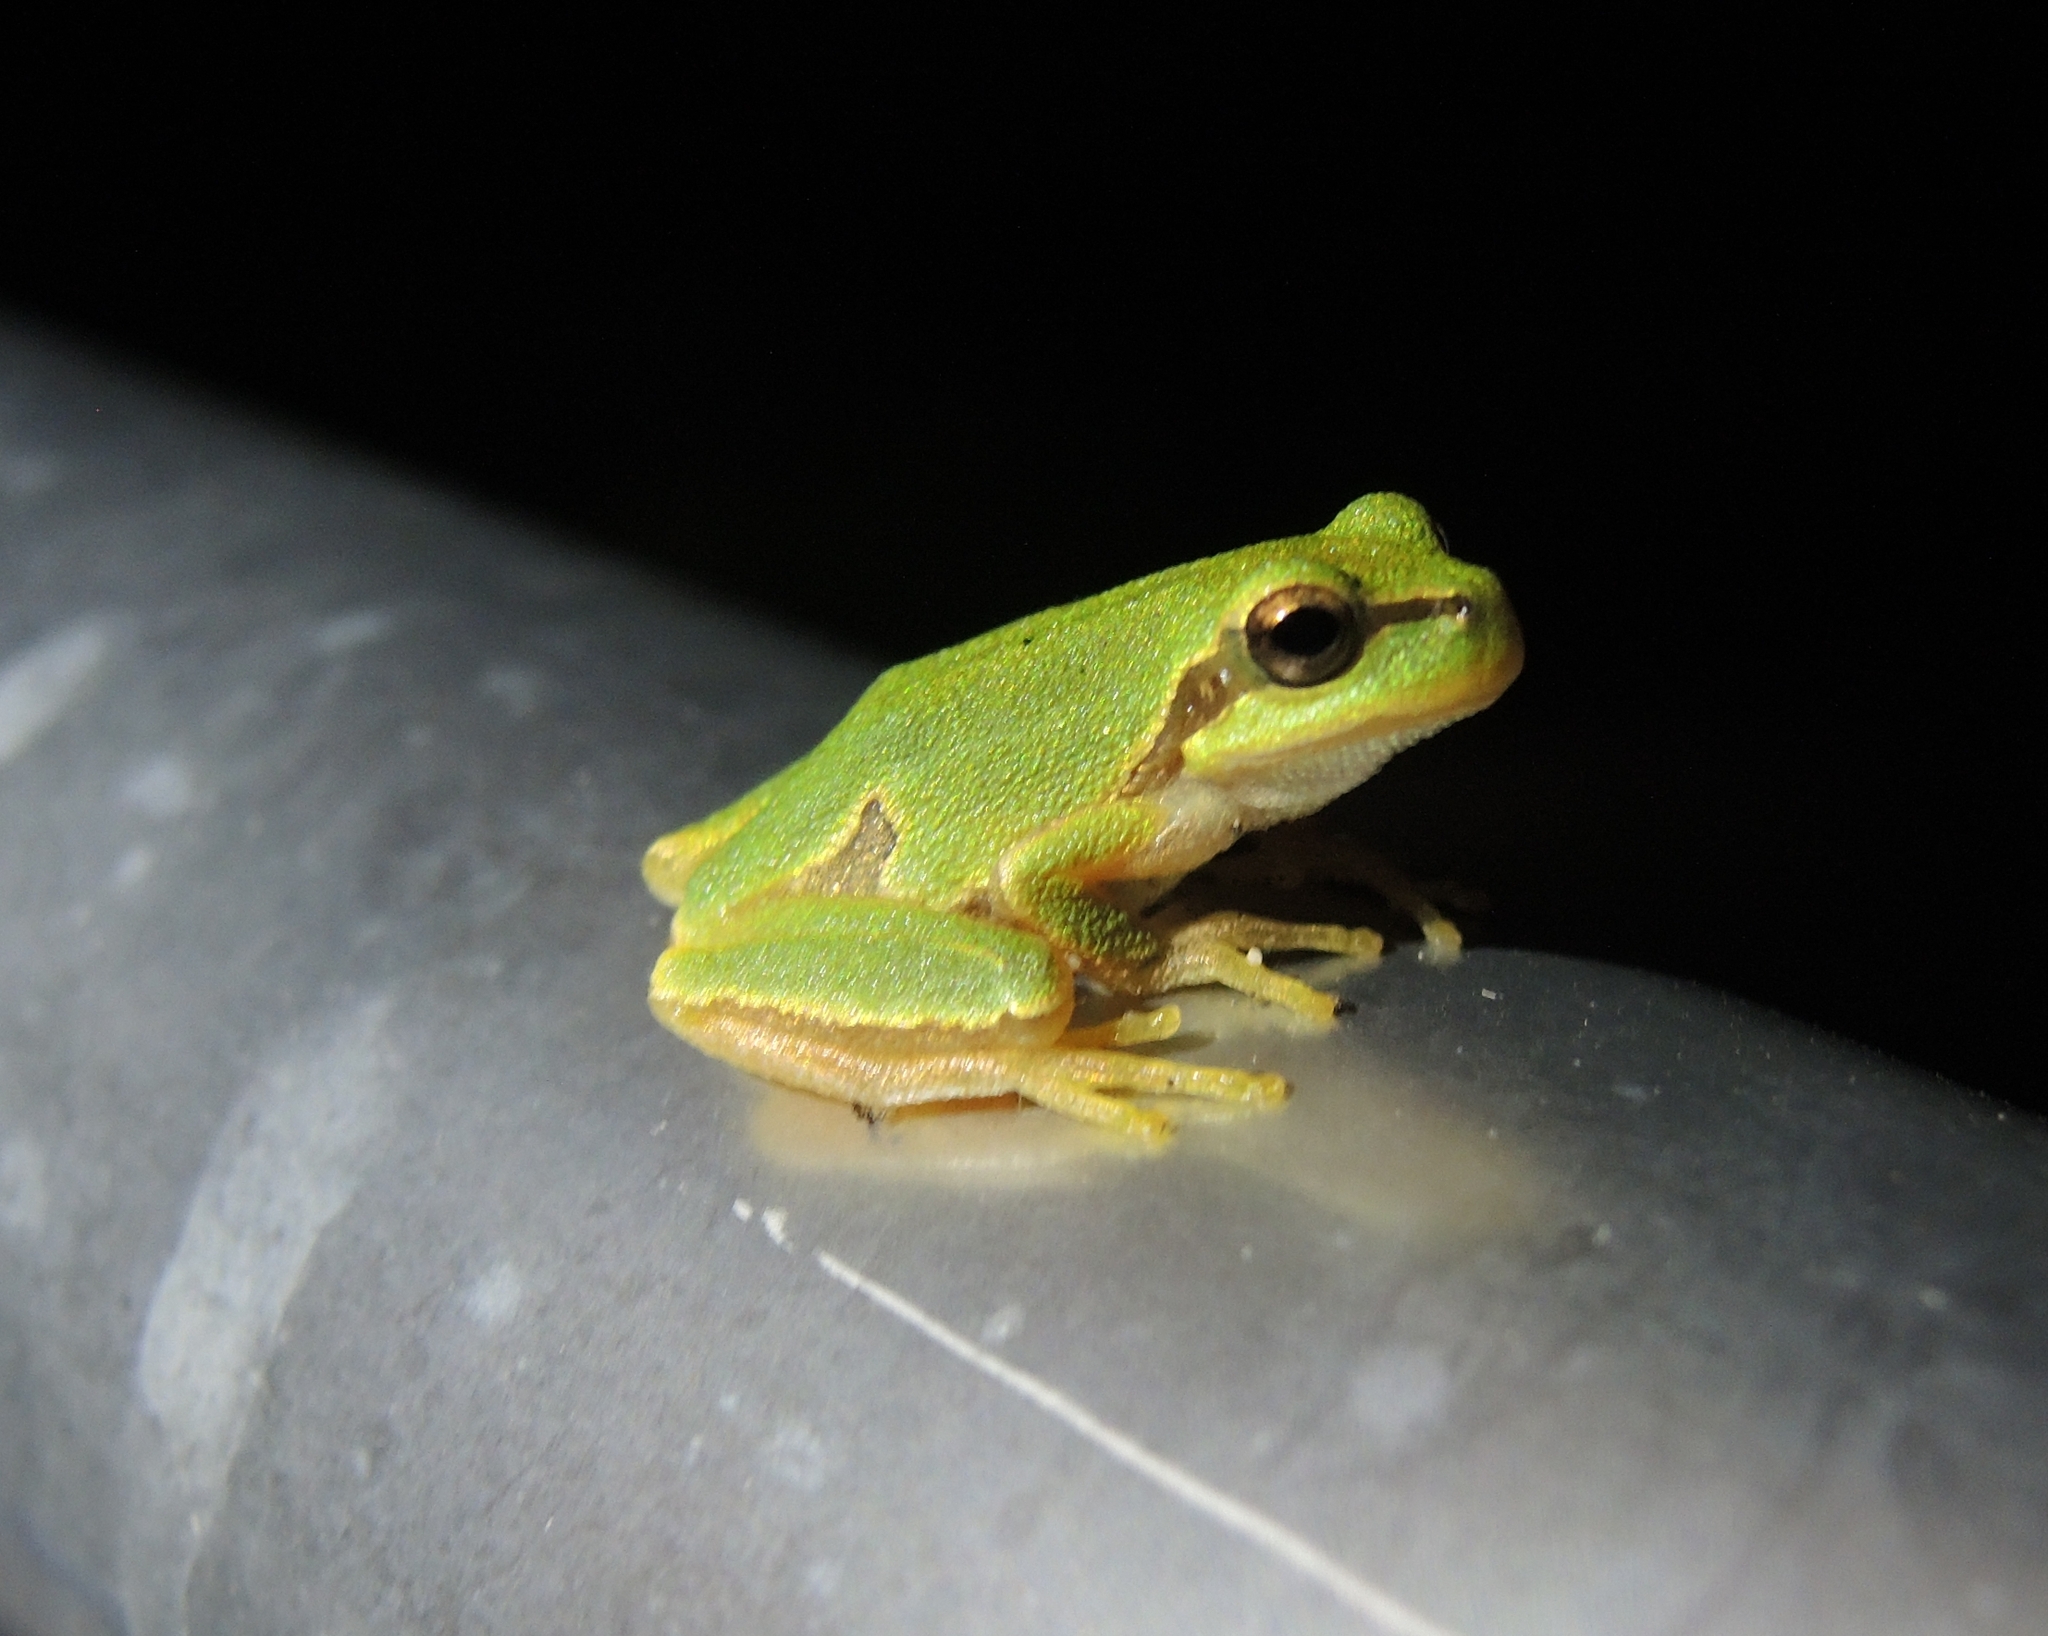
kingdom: Animalia
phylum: Chordata
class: Amphibia
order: Anura
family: Hylidae
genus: Hyla
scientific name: Hyla orientalis
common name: Caucasian treefrog
